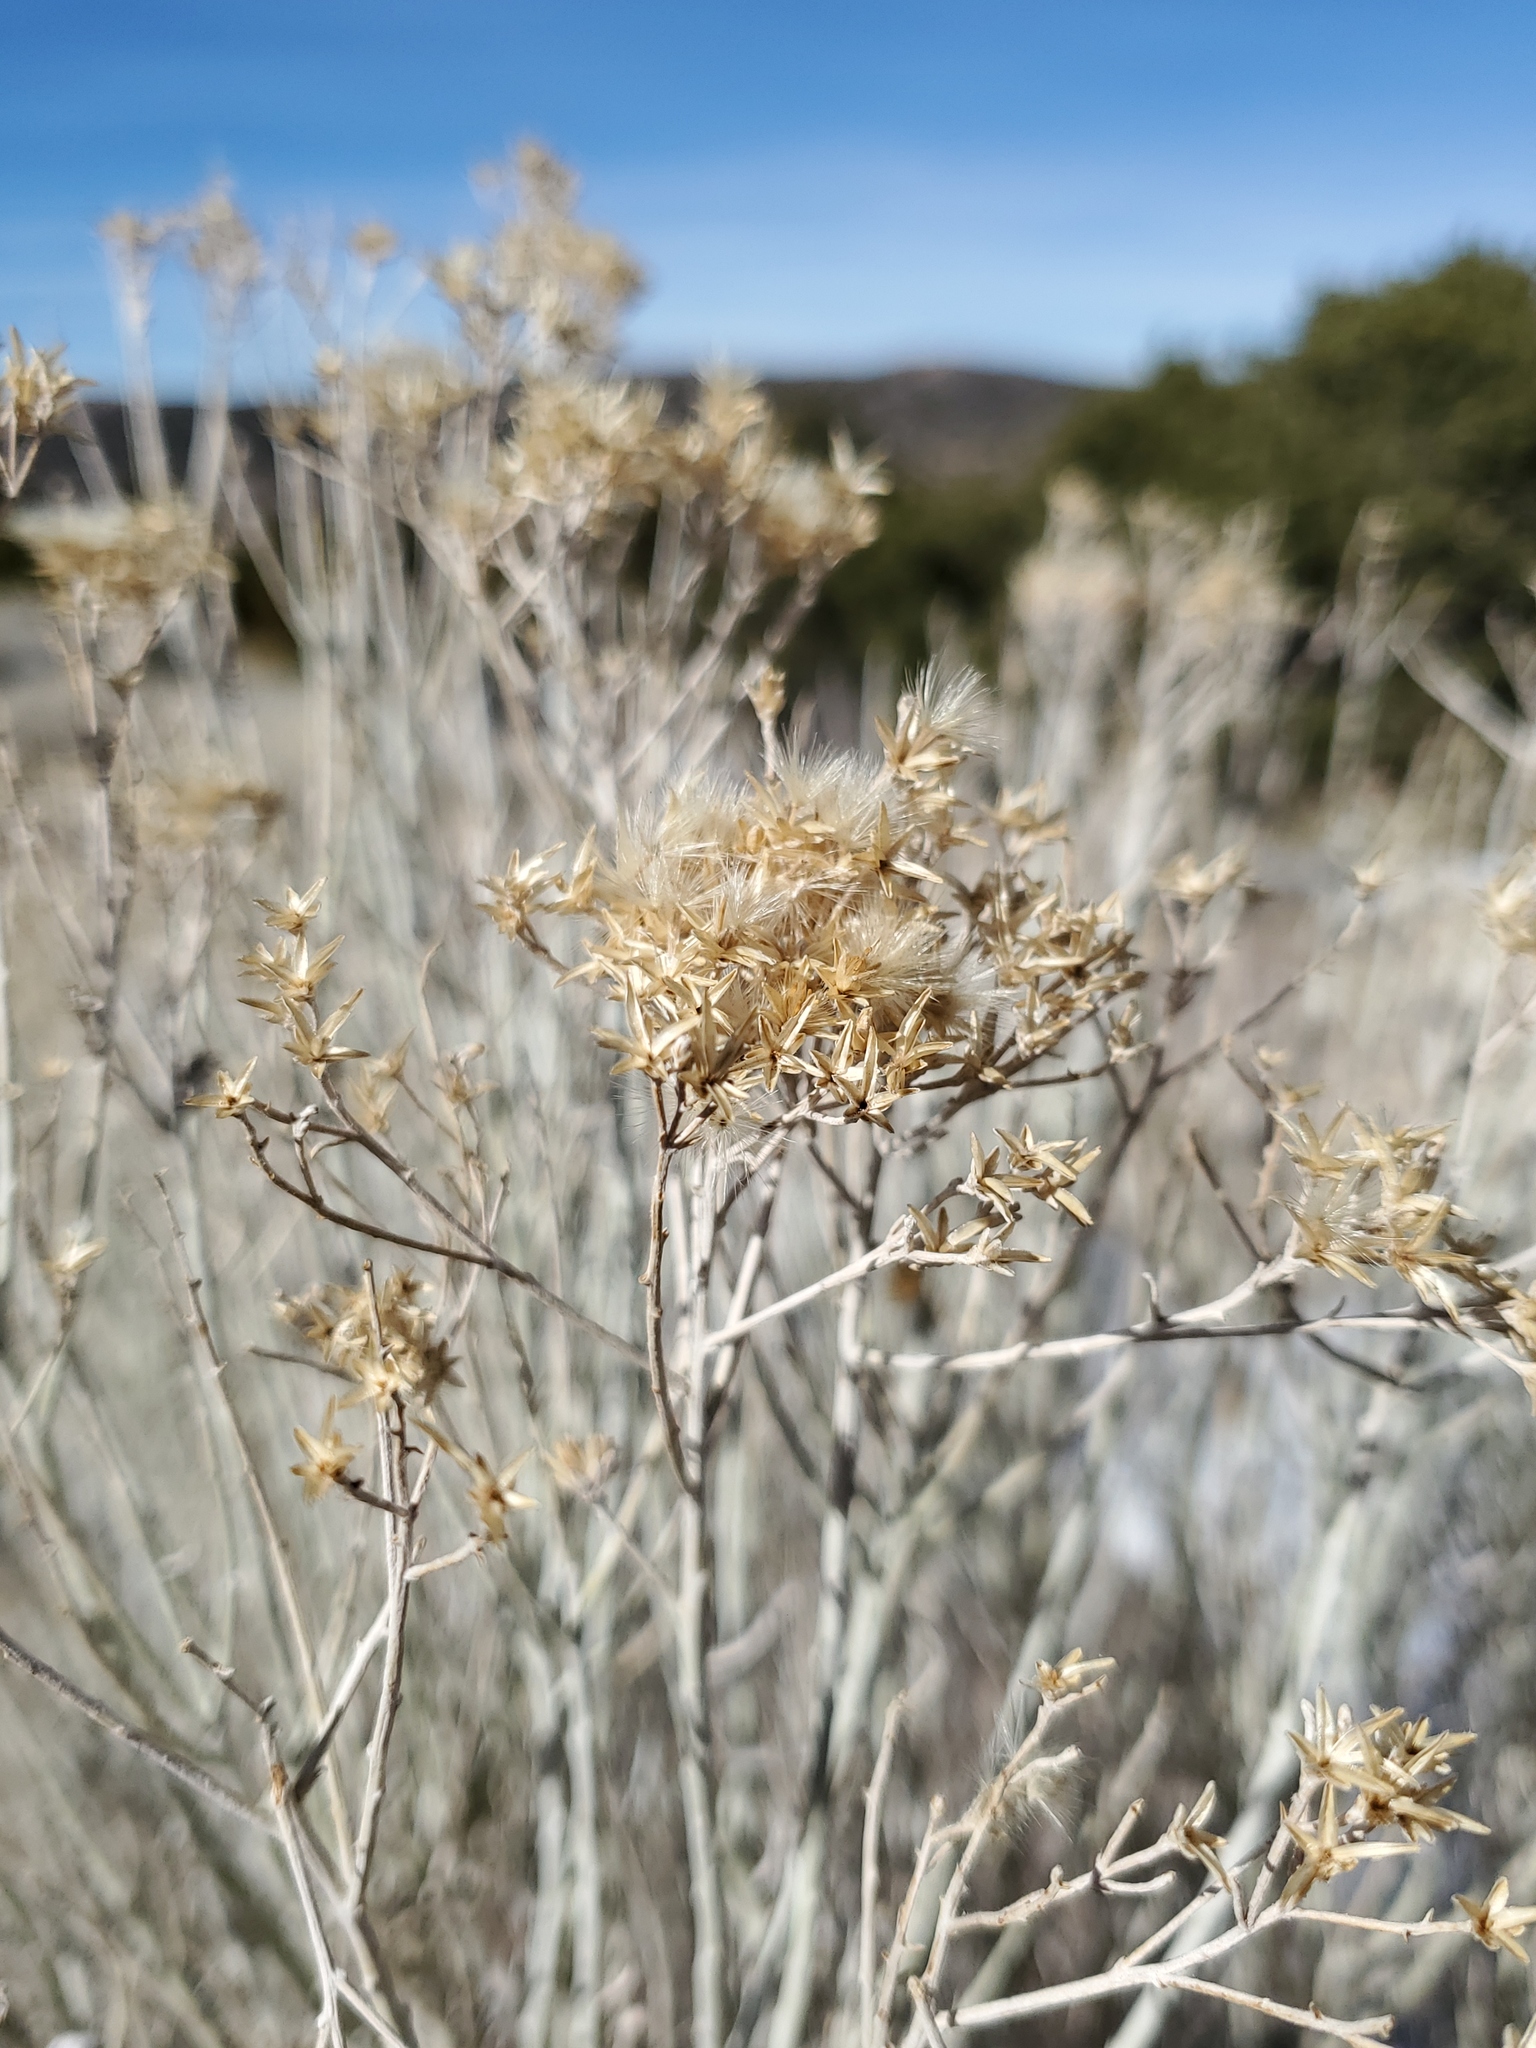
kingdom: Plantae
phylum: Tracheophyta
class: Magnoliopsida
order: Asterales
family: Asteraceae
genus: Ericameria
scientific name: Ericameria nauseosa
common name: Rubber rabbitbrush
